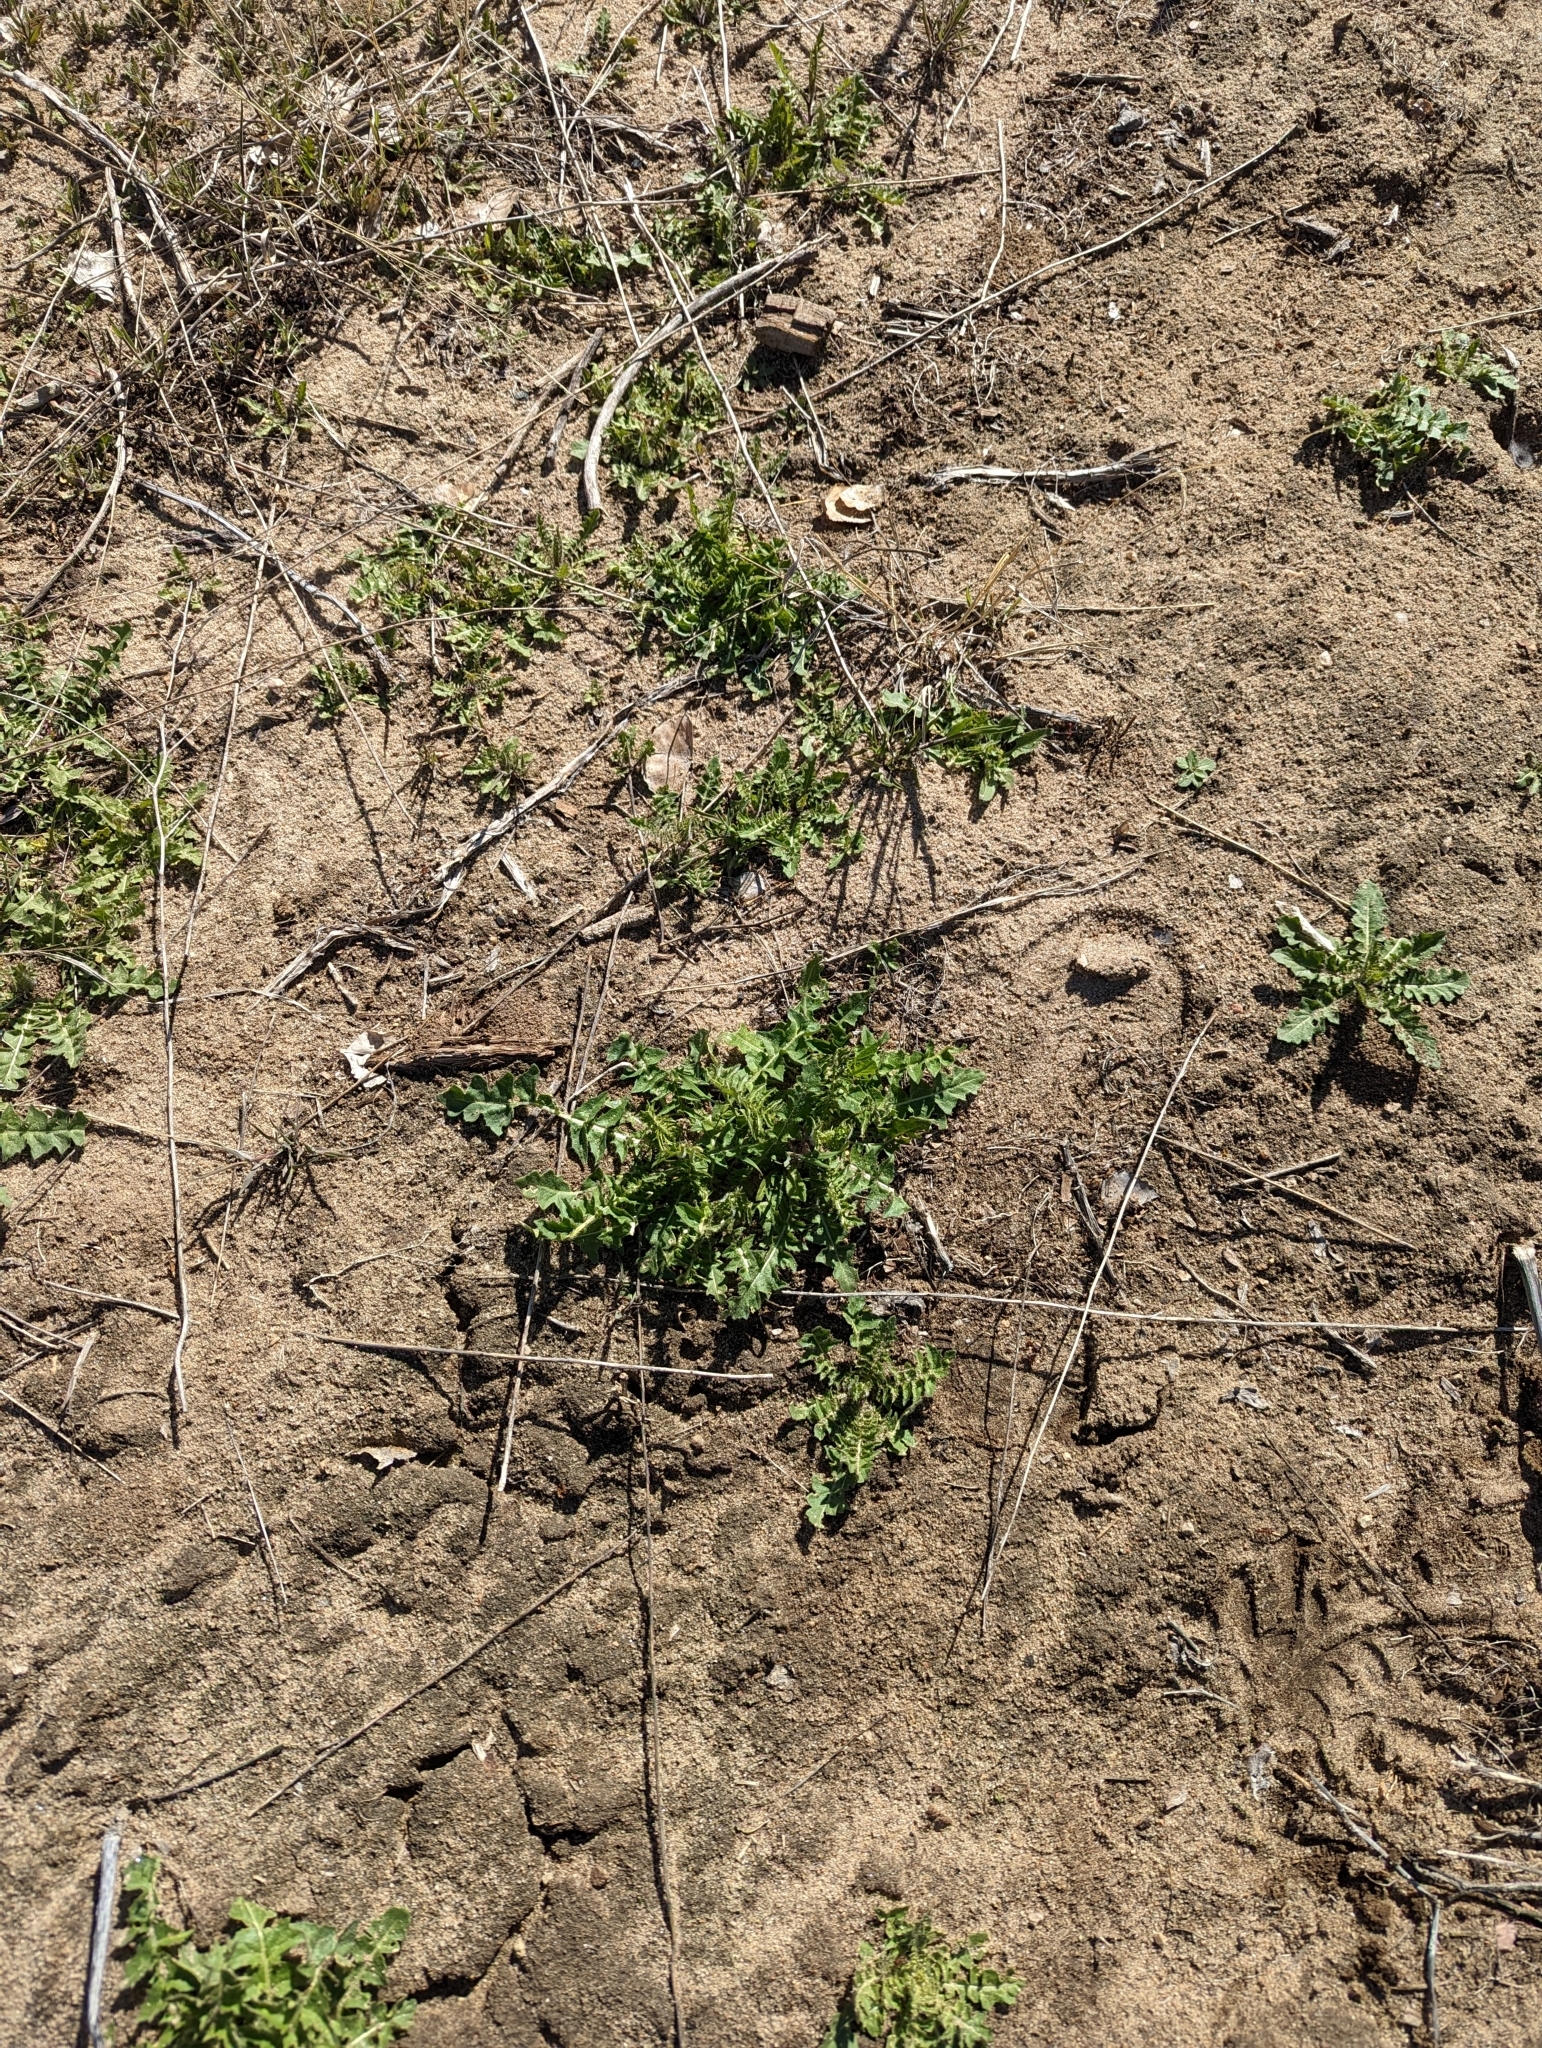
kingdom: Plantae
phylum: Tracheophyta
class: Magnoliopsida
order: Brassicales
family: Brassicaceae
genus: Sisymbrium
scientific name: Sisymbrium altissimum
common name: Tall rocket
